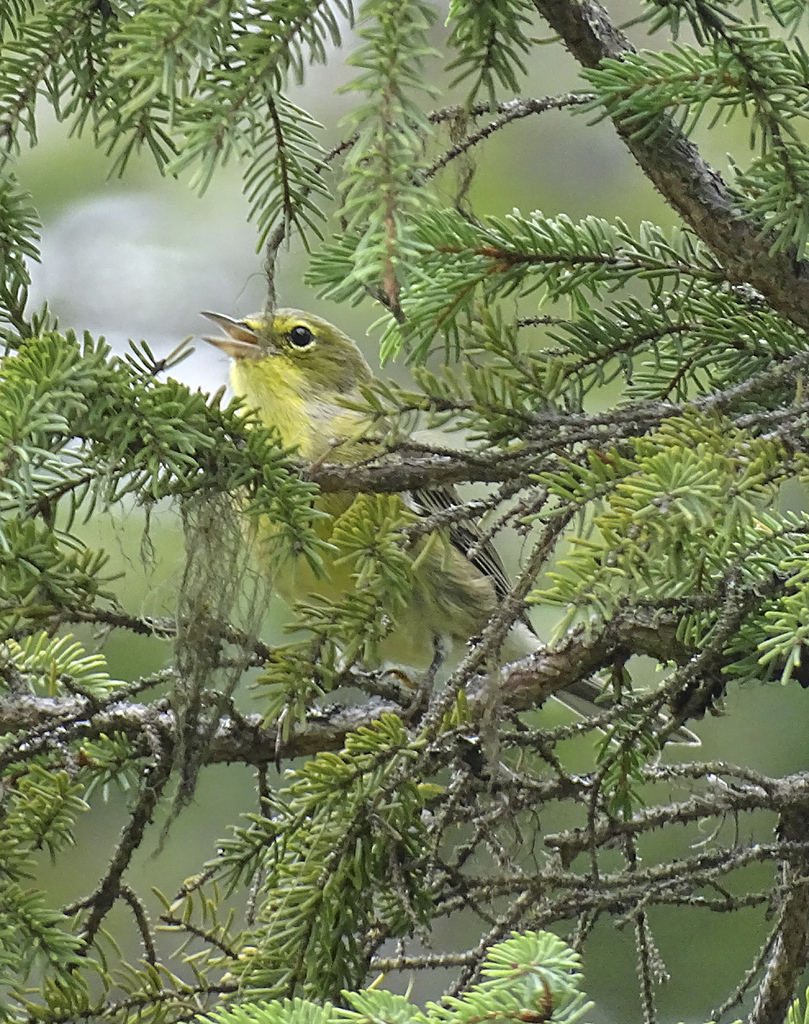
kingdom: Animalia
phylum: Chordata
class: Aves
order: Passeriformes
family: Parulidae
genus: Setophaga
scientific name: Setophaga pinus
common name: Pine warbler
